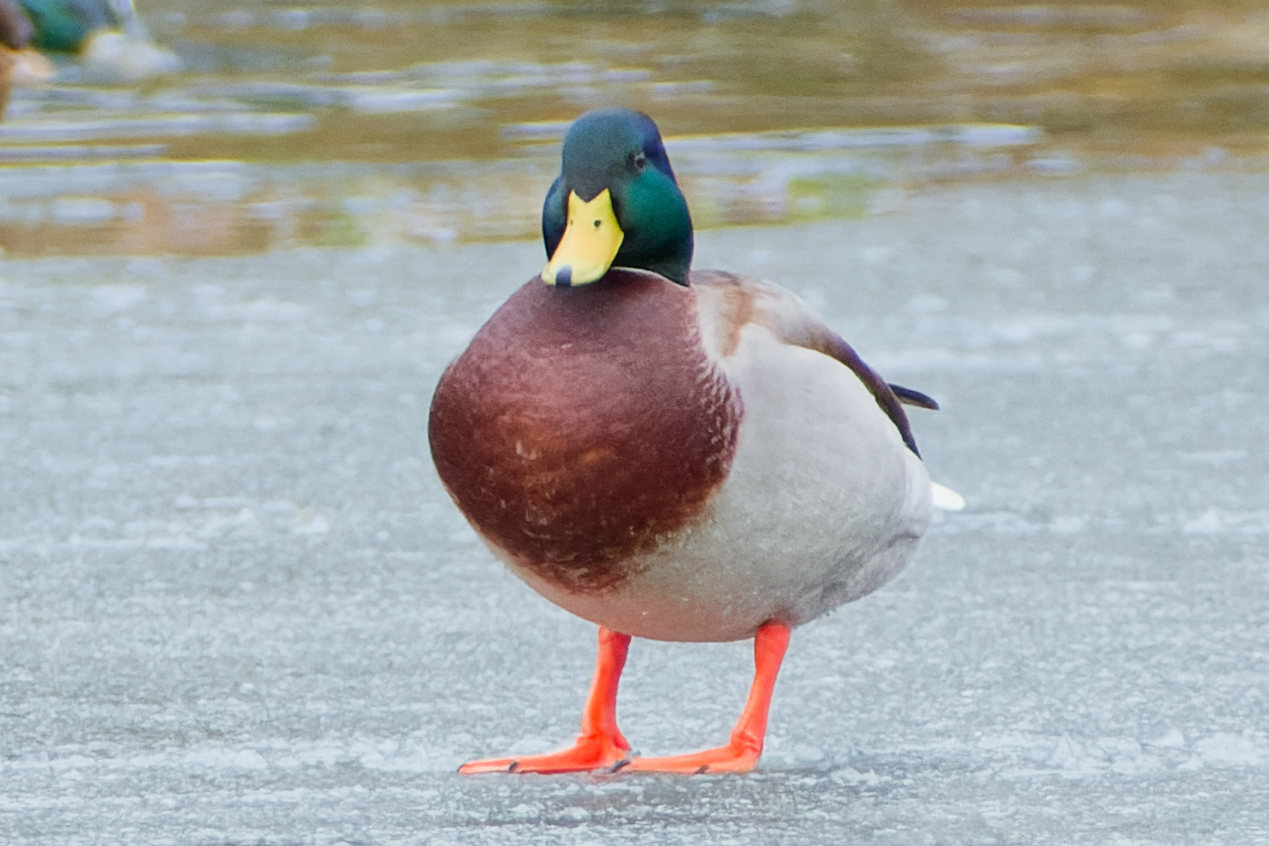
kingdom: Animalia
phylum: Chordata
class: Aves
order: Anseriformes
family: Anatidae
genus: Anas
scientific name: Anas platyrhynchos
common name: Mallard
